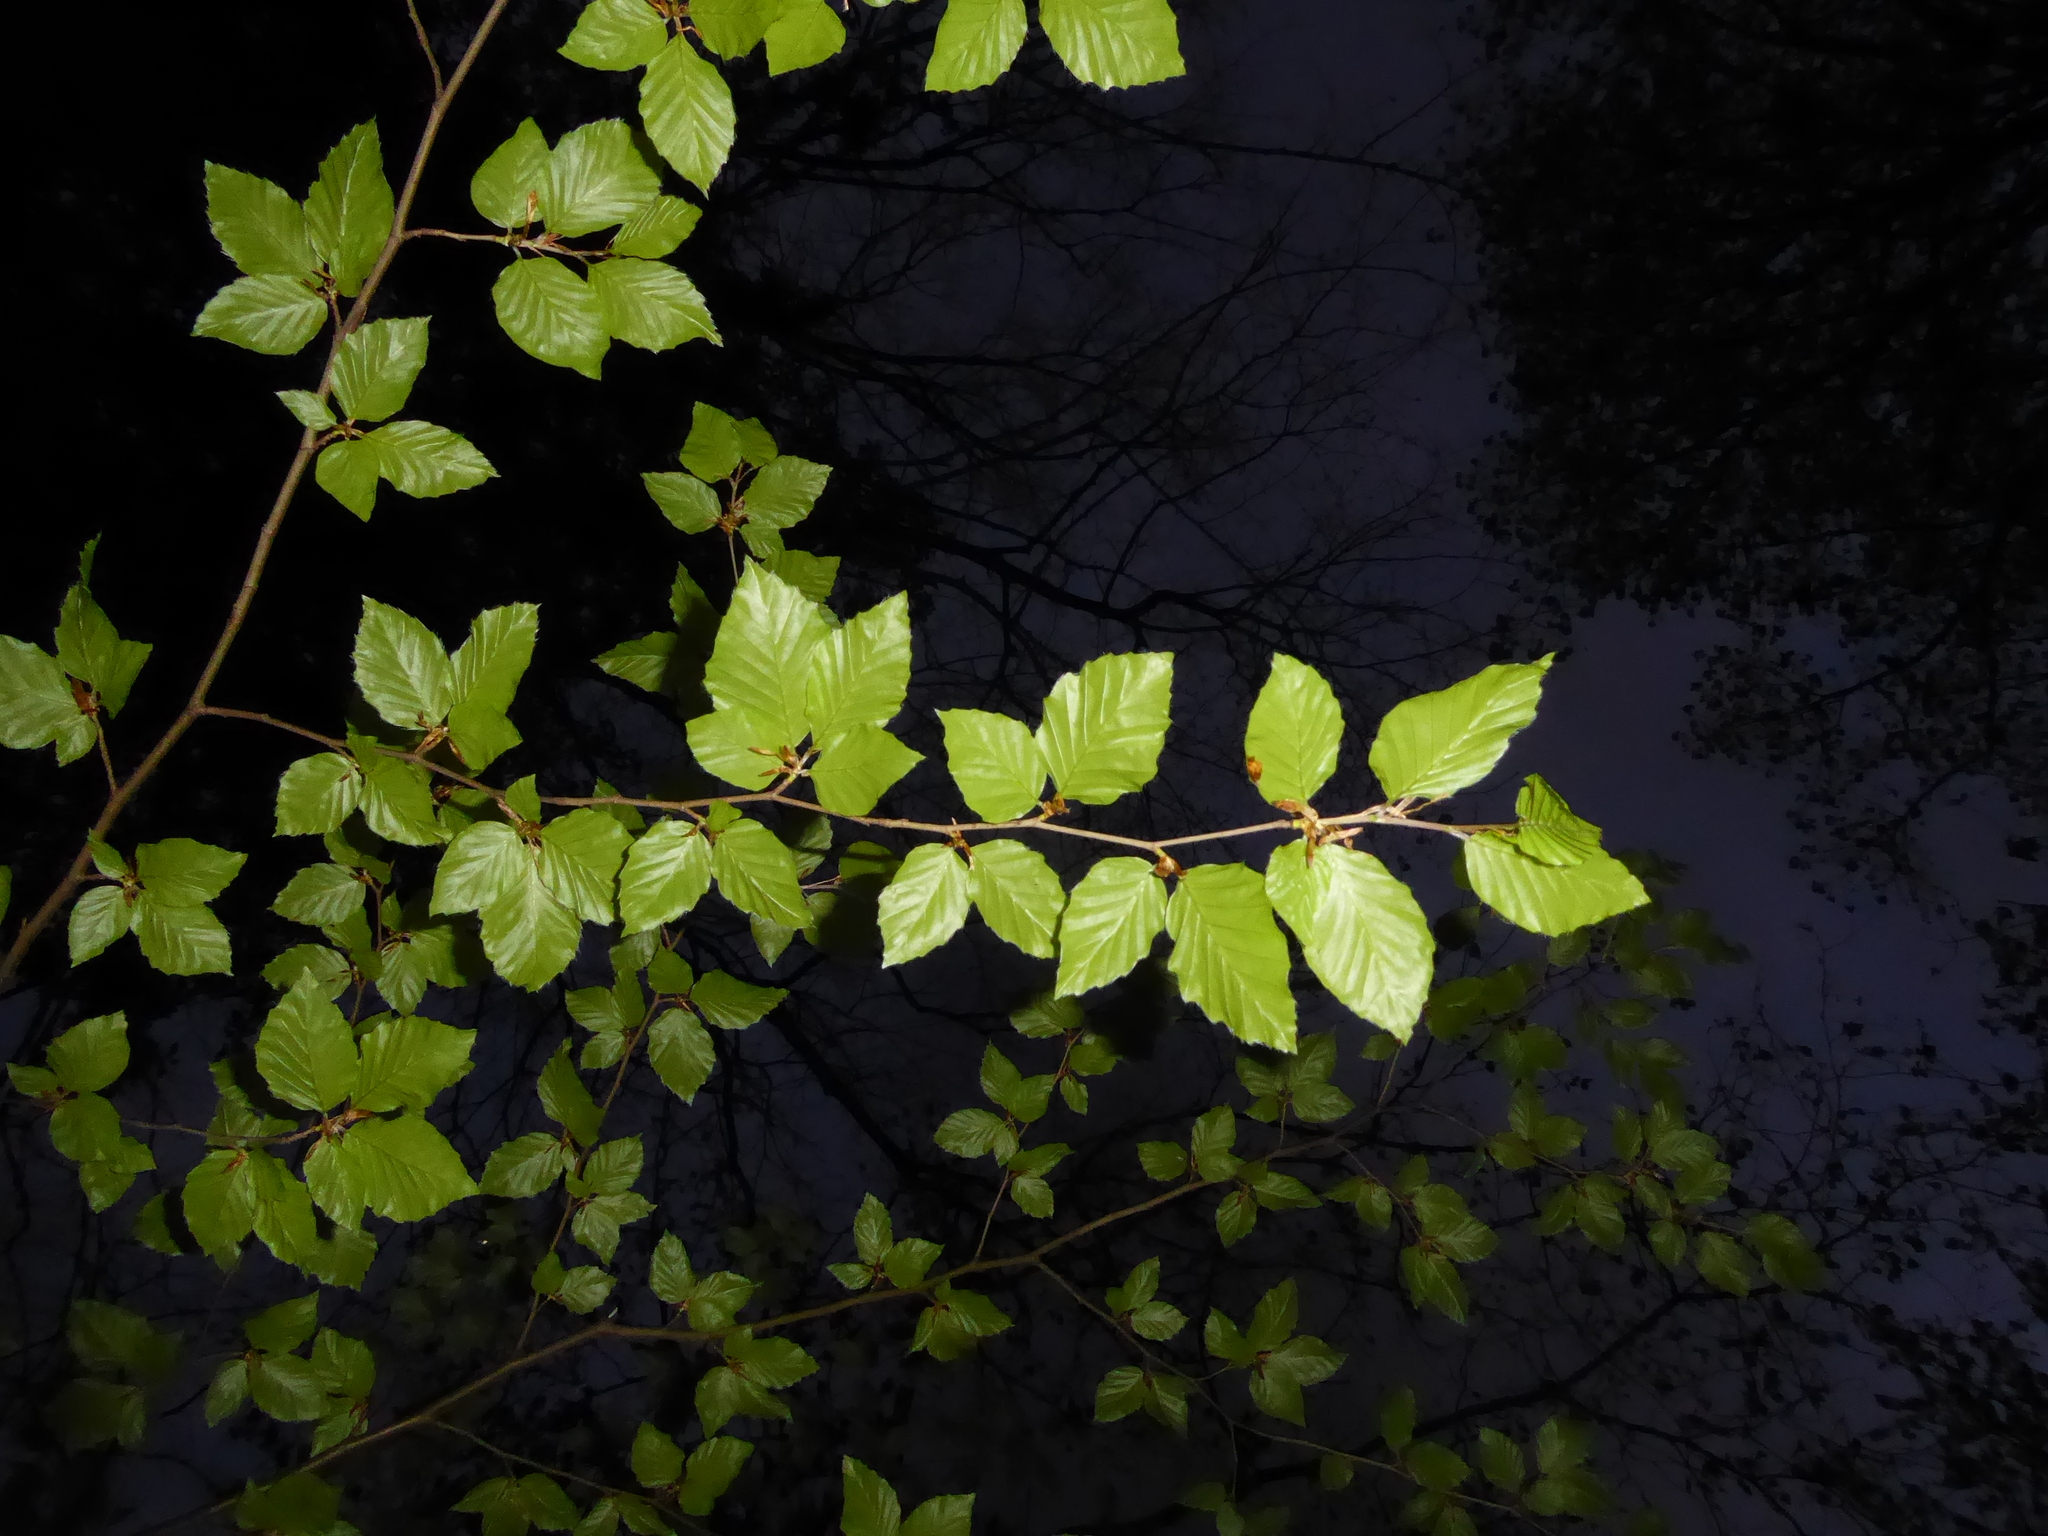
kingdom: Plantae
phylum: Tracheophyta
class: Magnoliopsida
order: Fagales
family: Fagaceae
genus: Fagus
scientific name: Fagus sylvatica
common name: Beech
